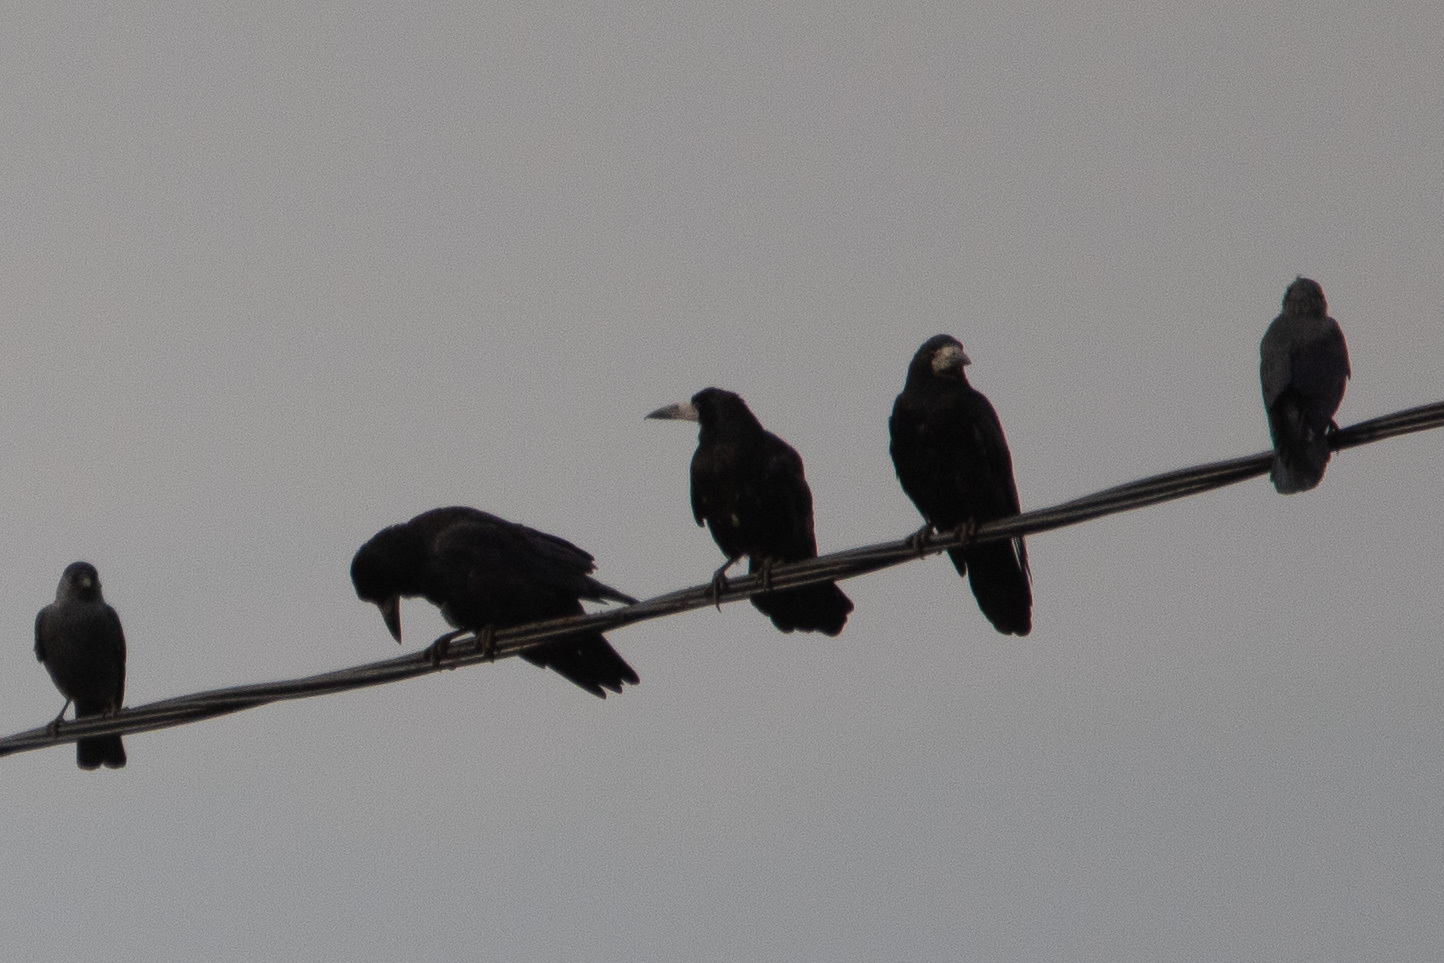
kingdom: Animalia
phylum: Chordata
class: Aves
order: Passeriformes
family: Corvidae
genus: Corvus
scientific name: Corvus frugilegus
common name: Rook
